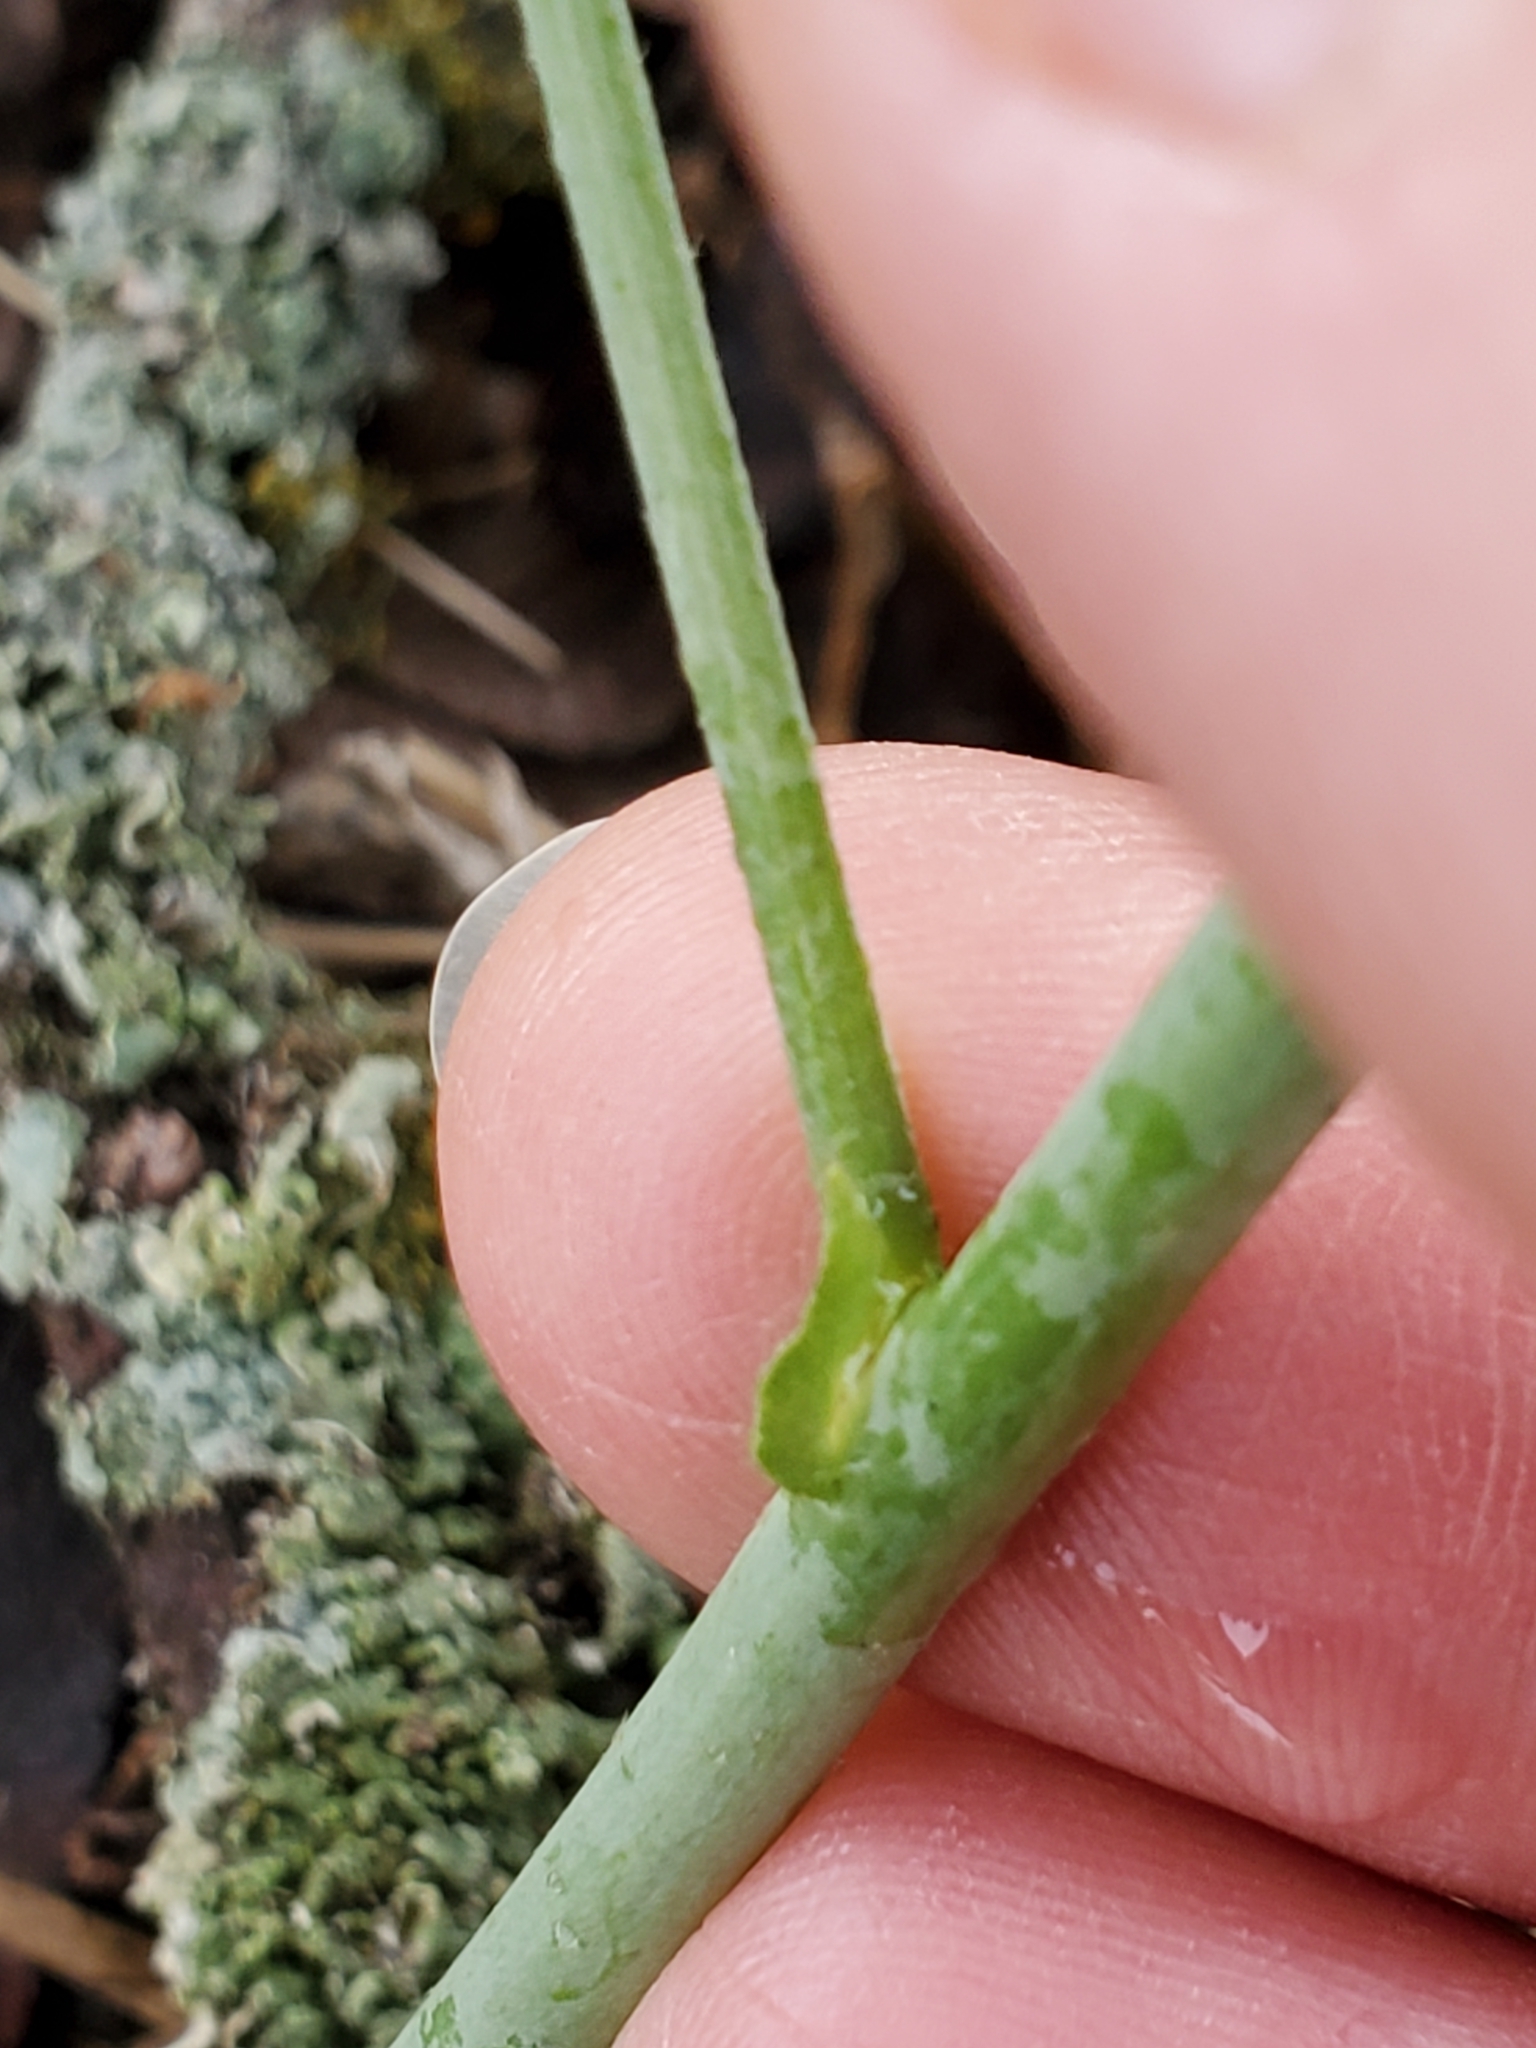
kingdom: Plantae
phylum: Tracheophyta
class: Magnoliopsida
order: Malvales
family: Malvaceae
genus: Callirhoe
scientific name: Callirhoe leiocarpa
